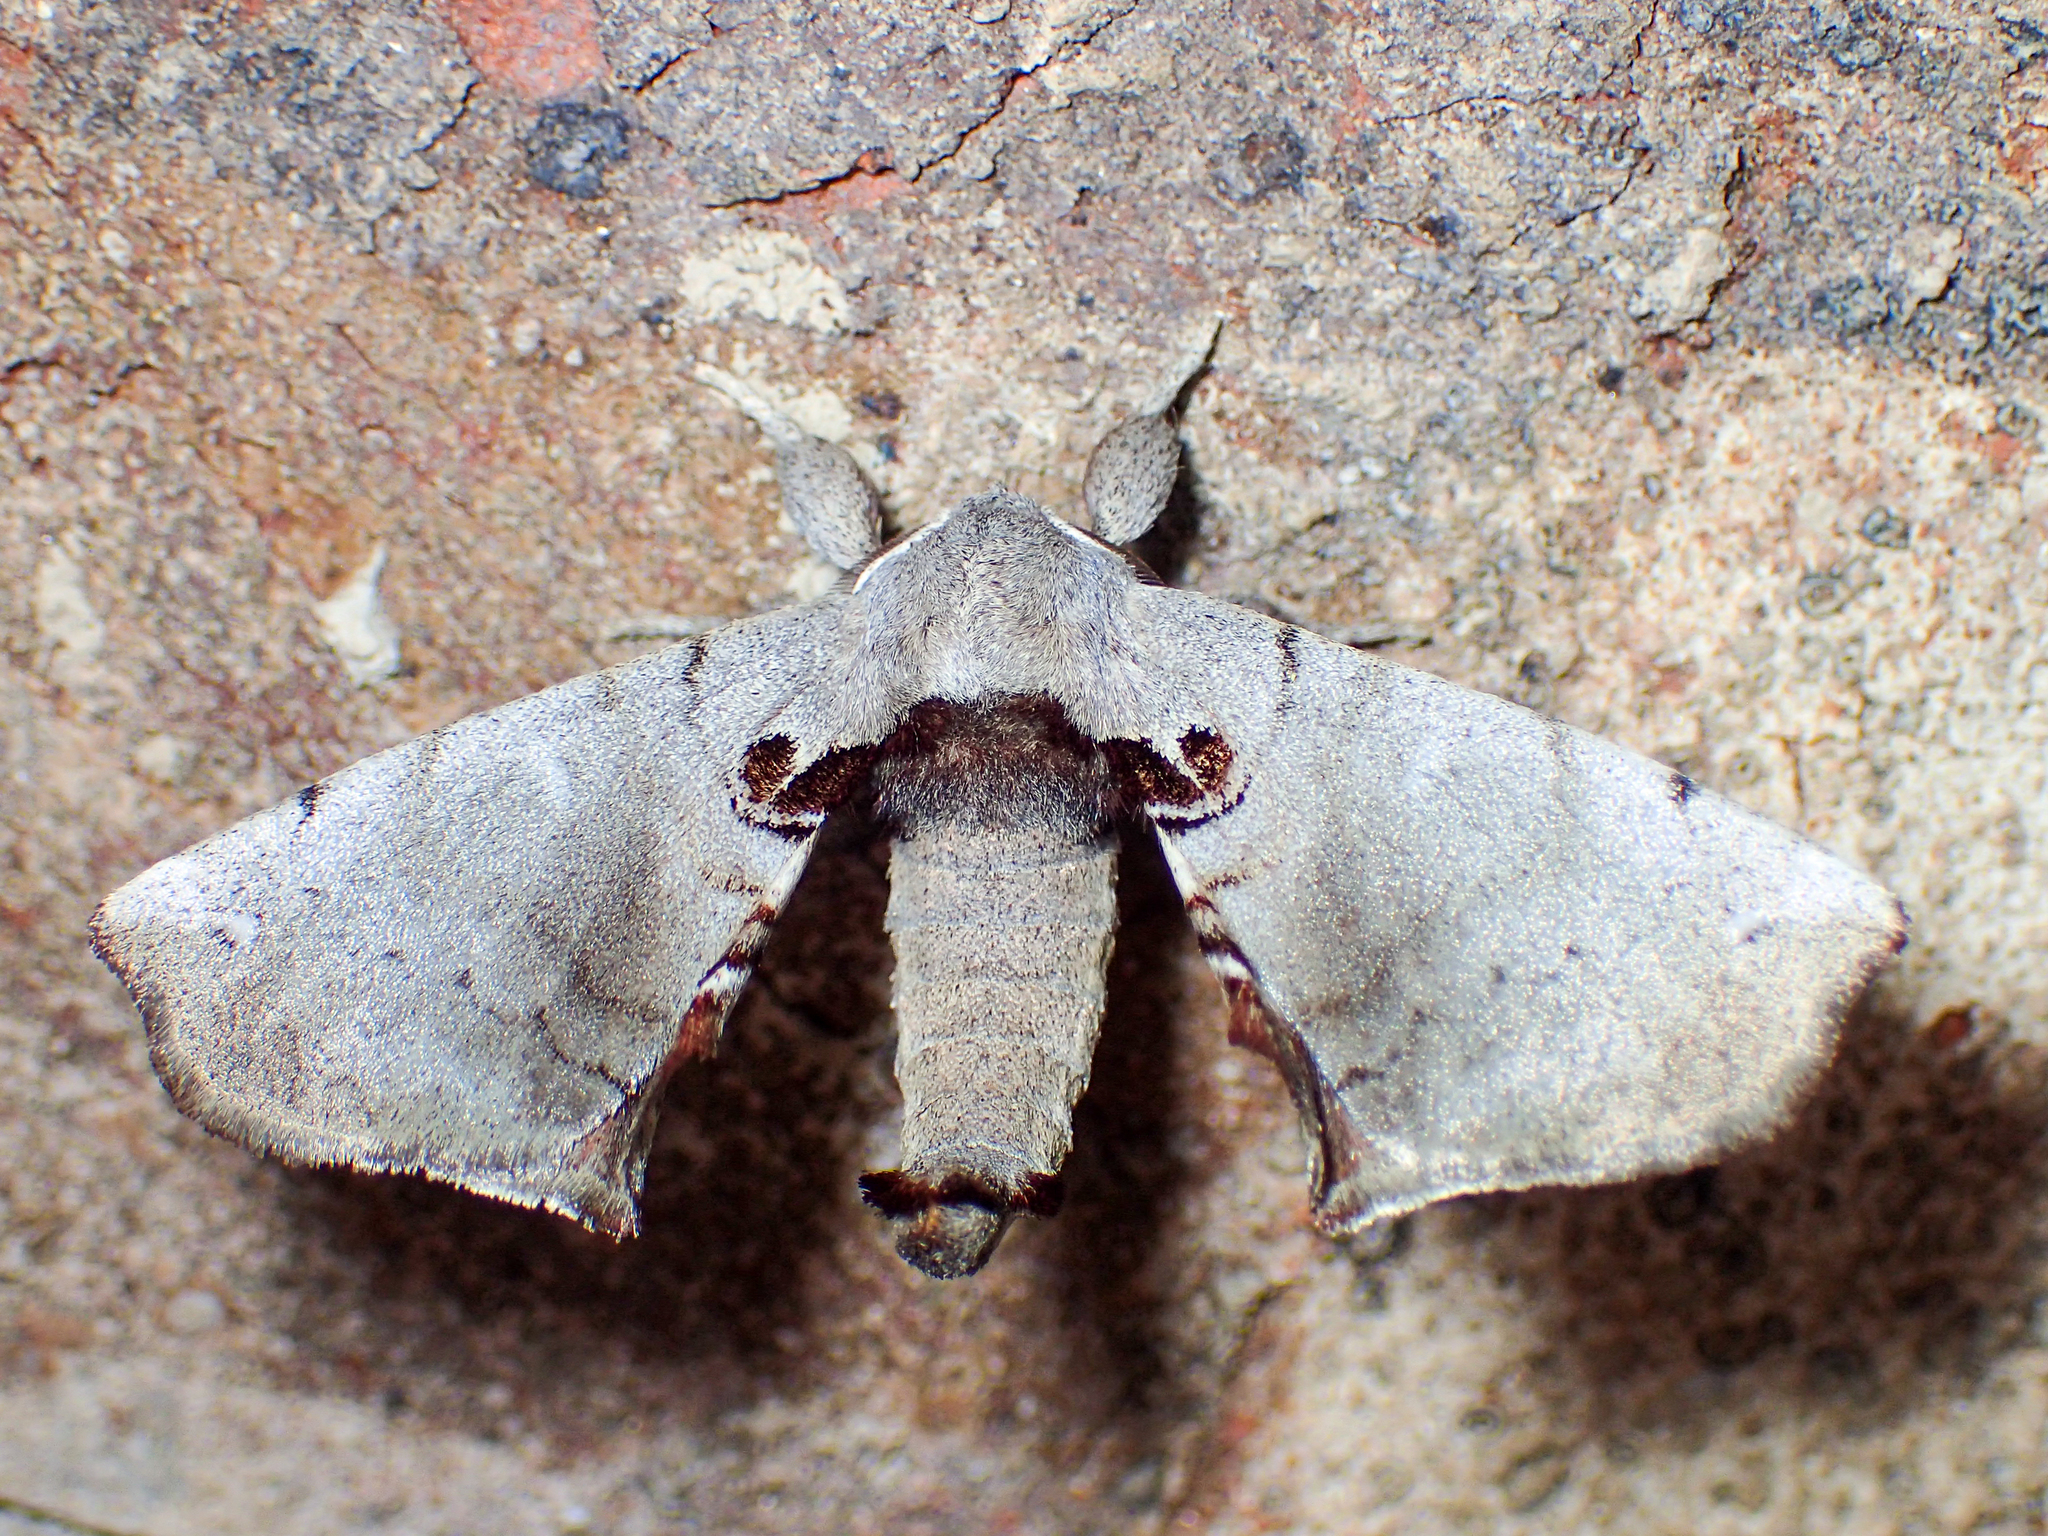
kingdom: Animalia
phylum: Arthropoda
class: Insecta
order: Lepidoptera
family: Apatelodidae
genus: Hygrochroa
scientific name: Hygrochroa Apatelodes torrefacta
